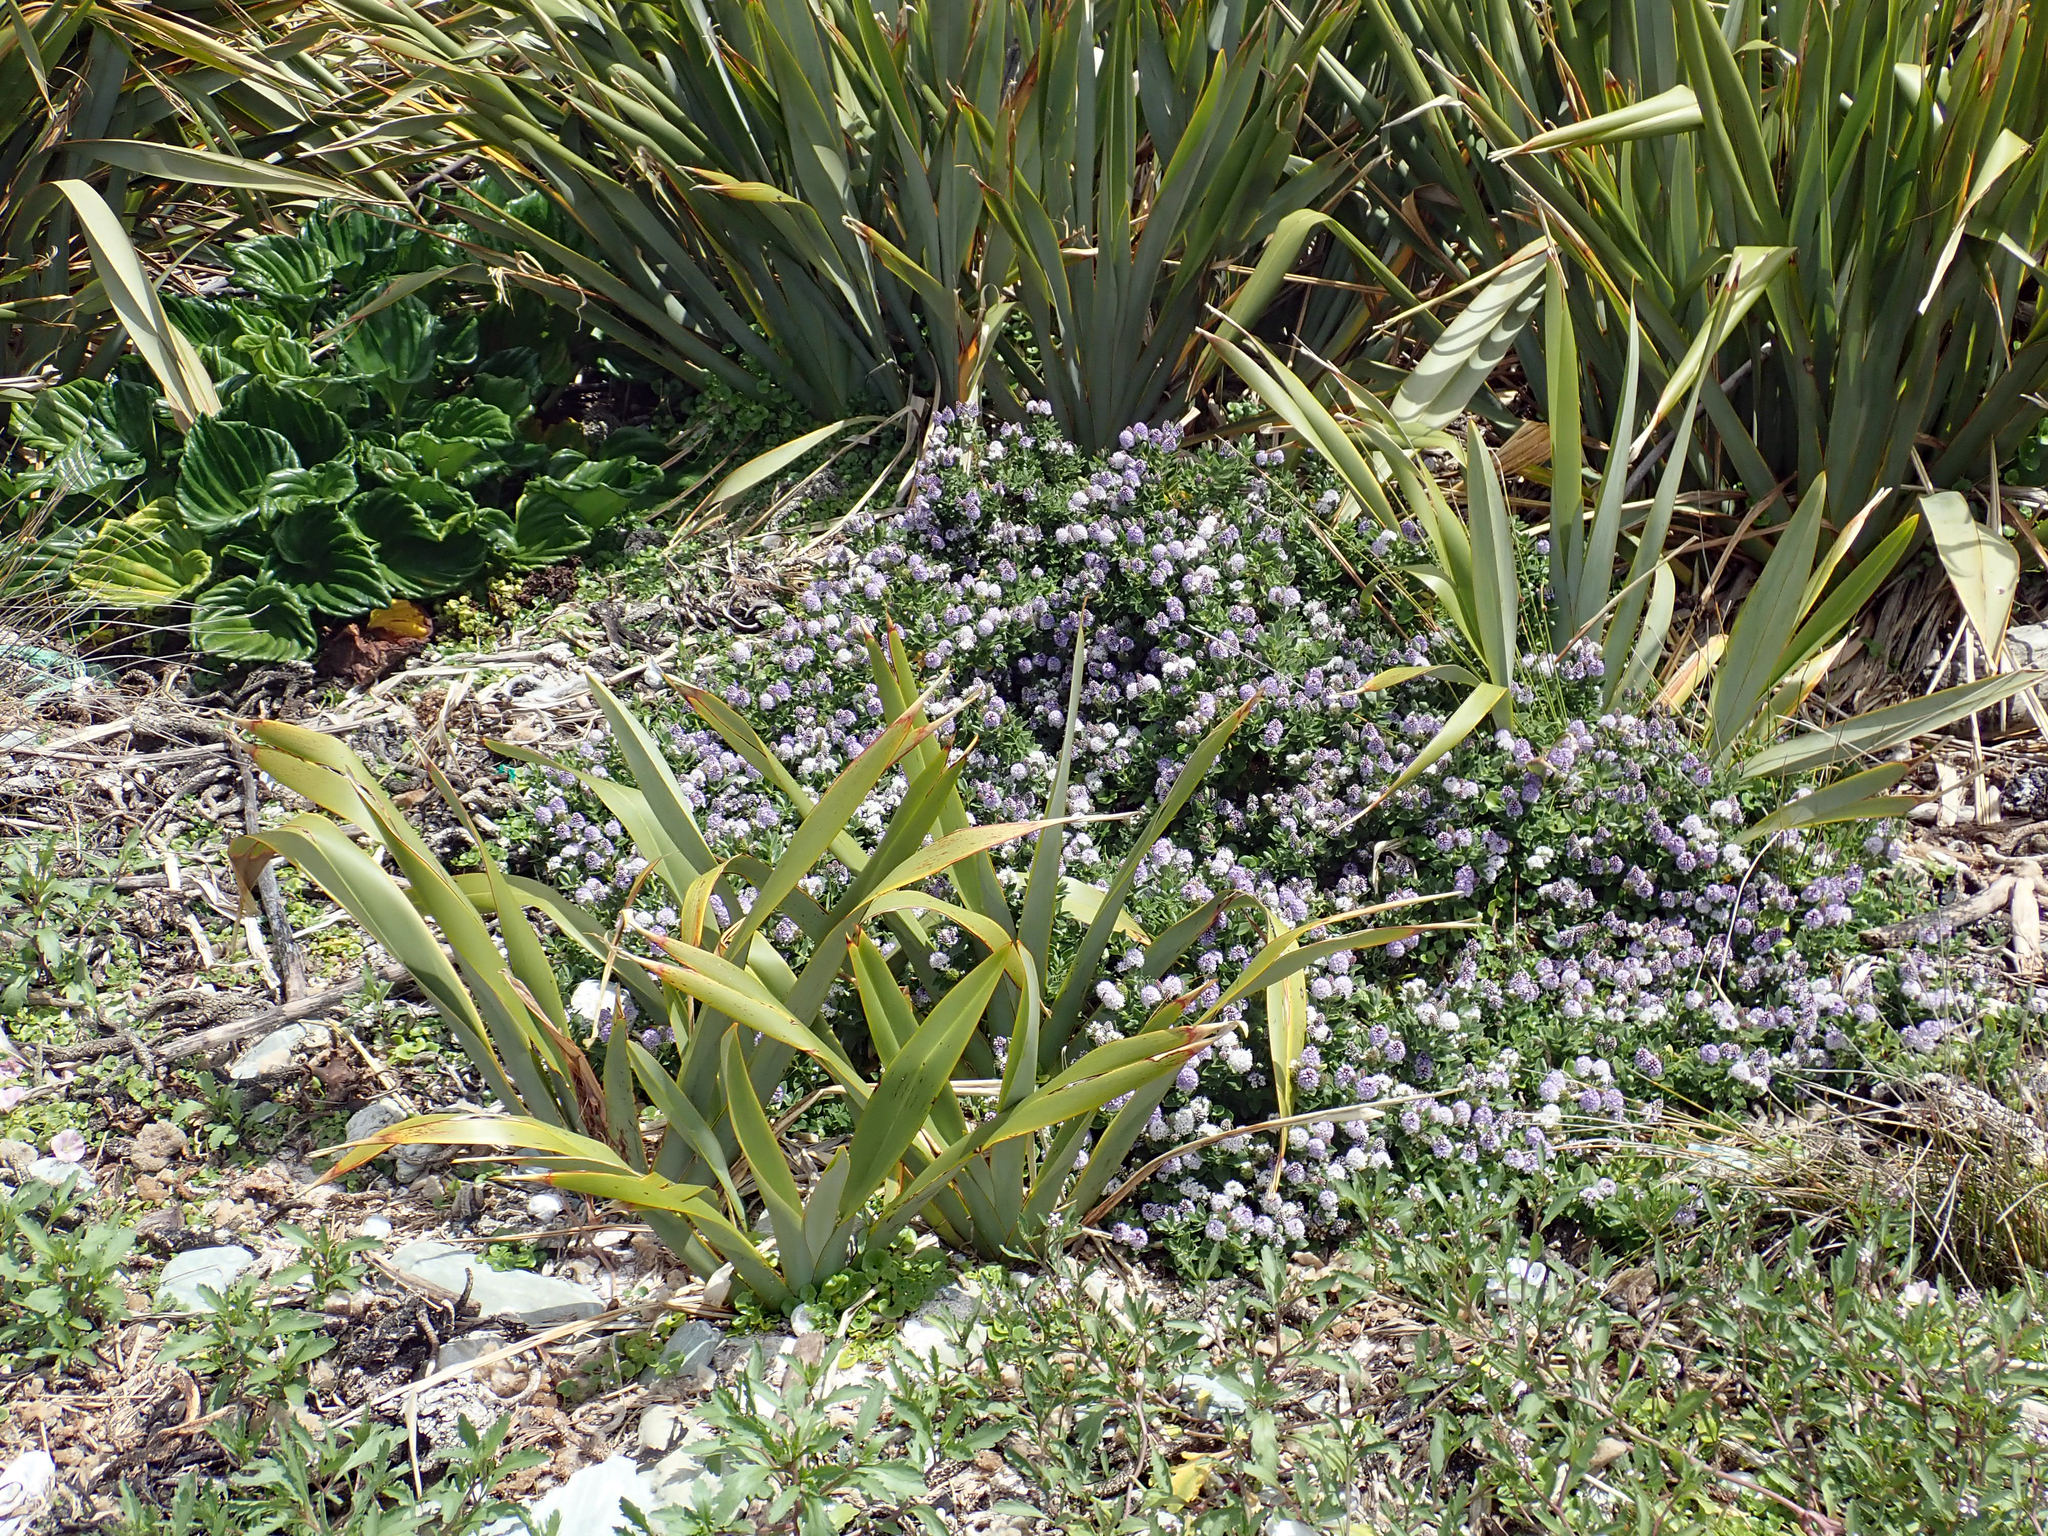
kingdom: Plantae
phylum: Tracheophyta
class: Magnoliopsida
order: Lamiales
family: Plantaginaceae
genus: Veronica
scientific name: Veronica chathamica
